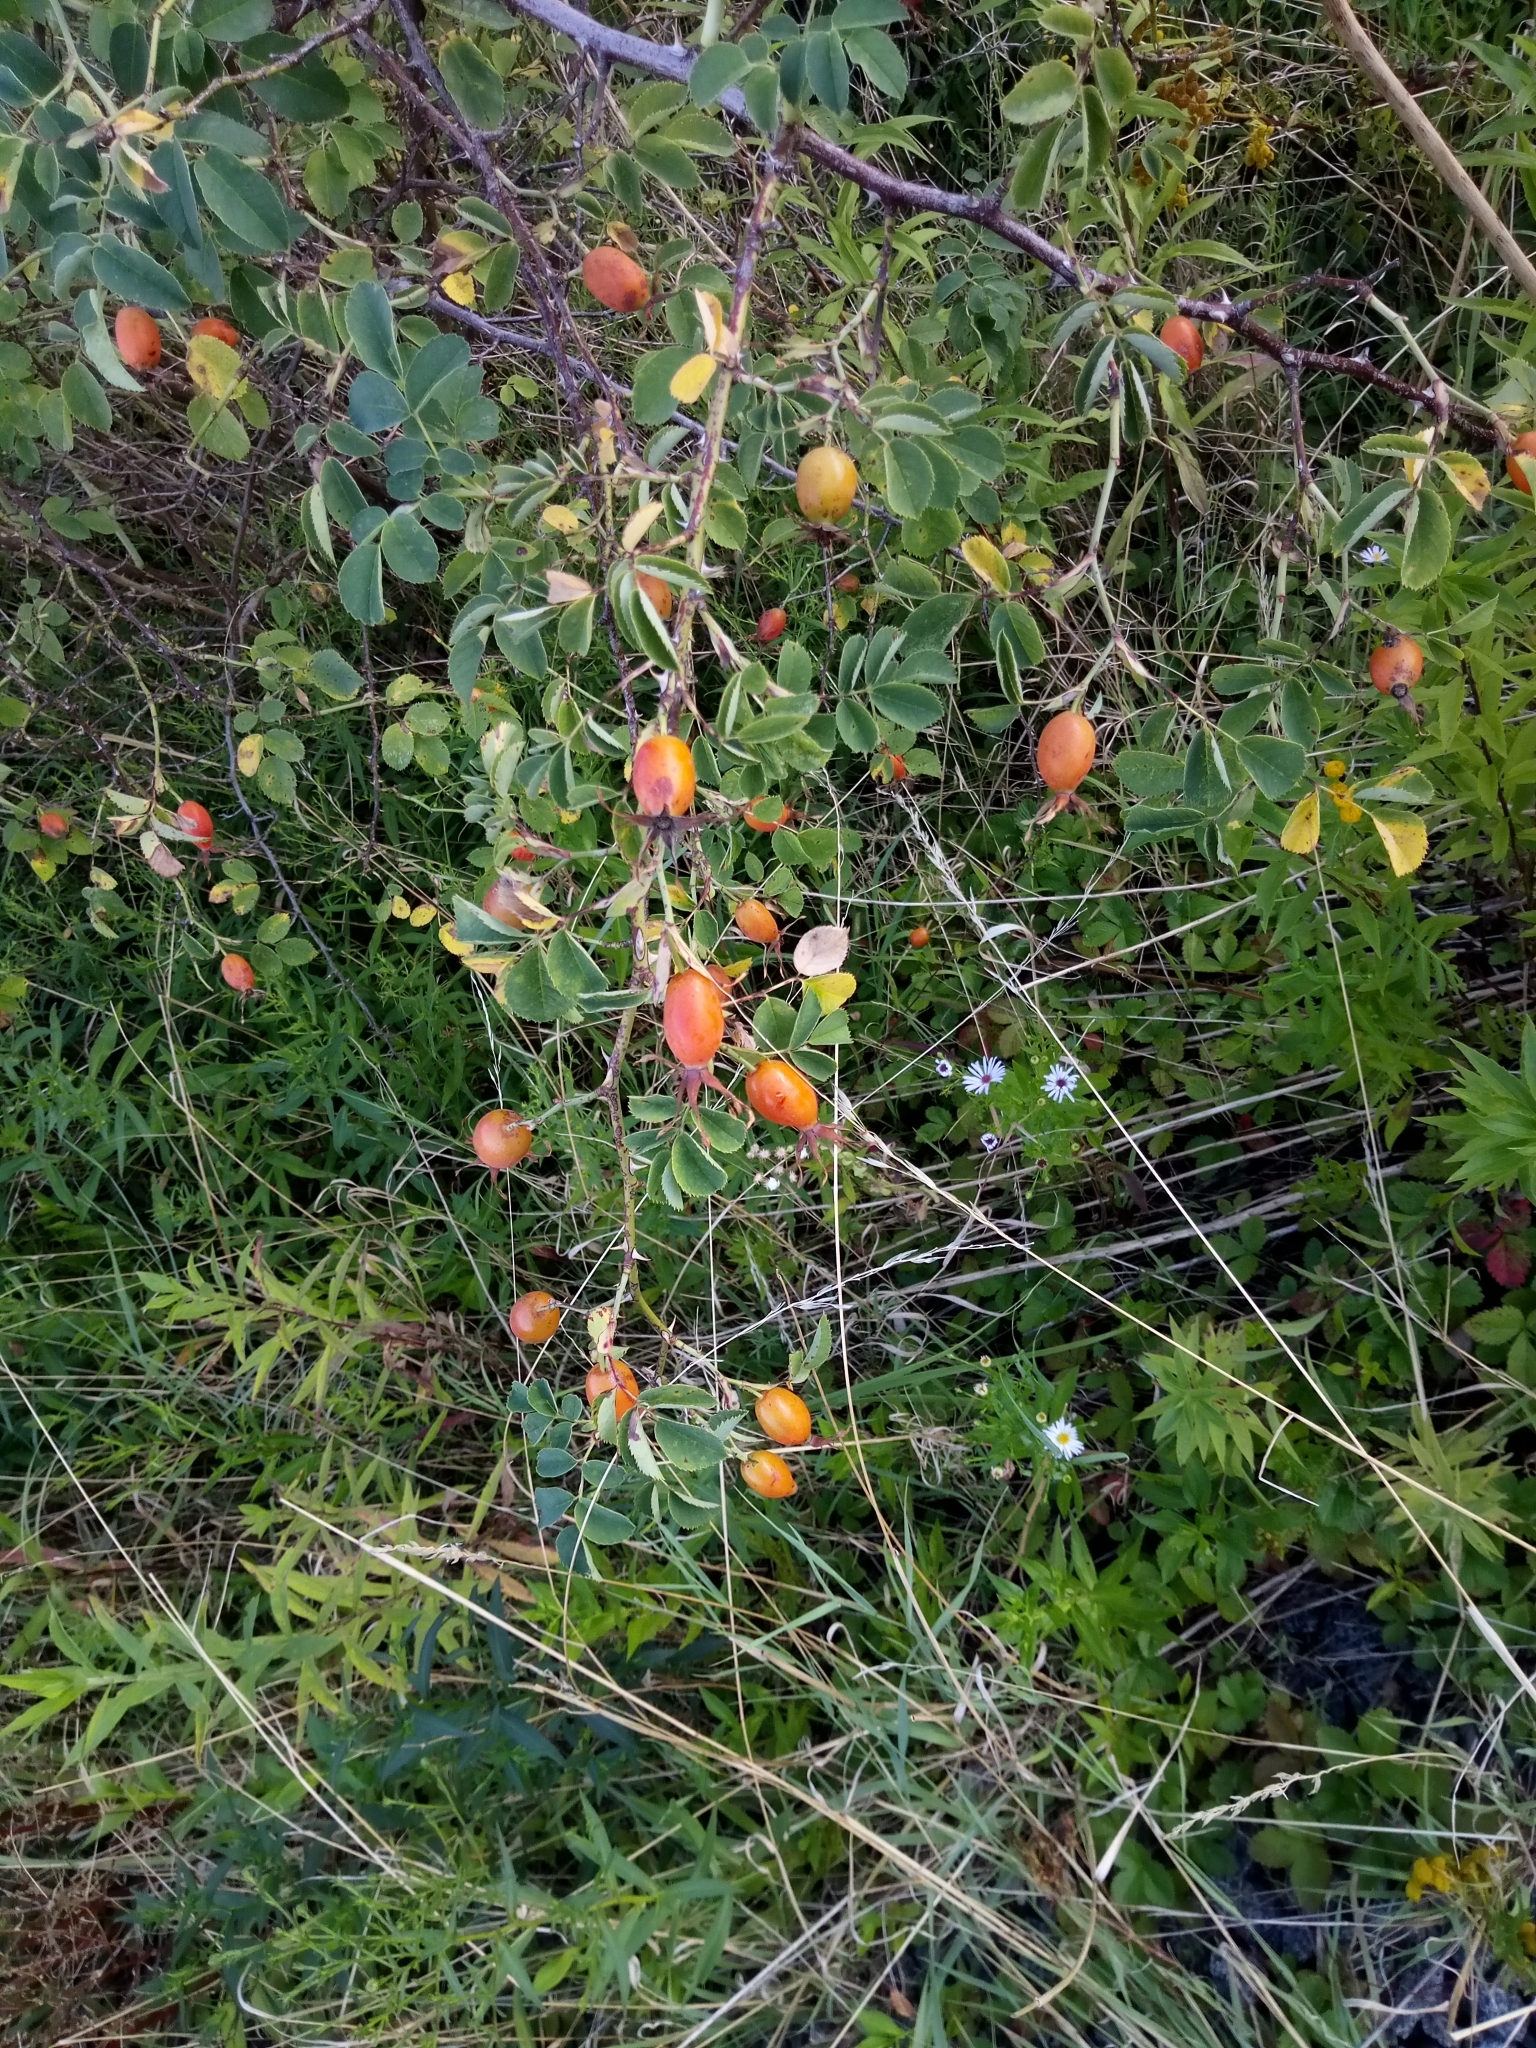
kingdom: Plantae
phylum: Tracheophyta
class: Magnoliopsida
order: Rosales
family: Rosaceae
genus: Rosa
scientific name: Rosa dumalis
